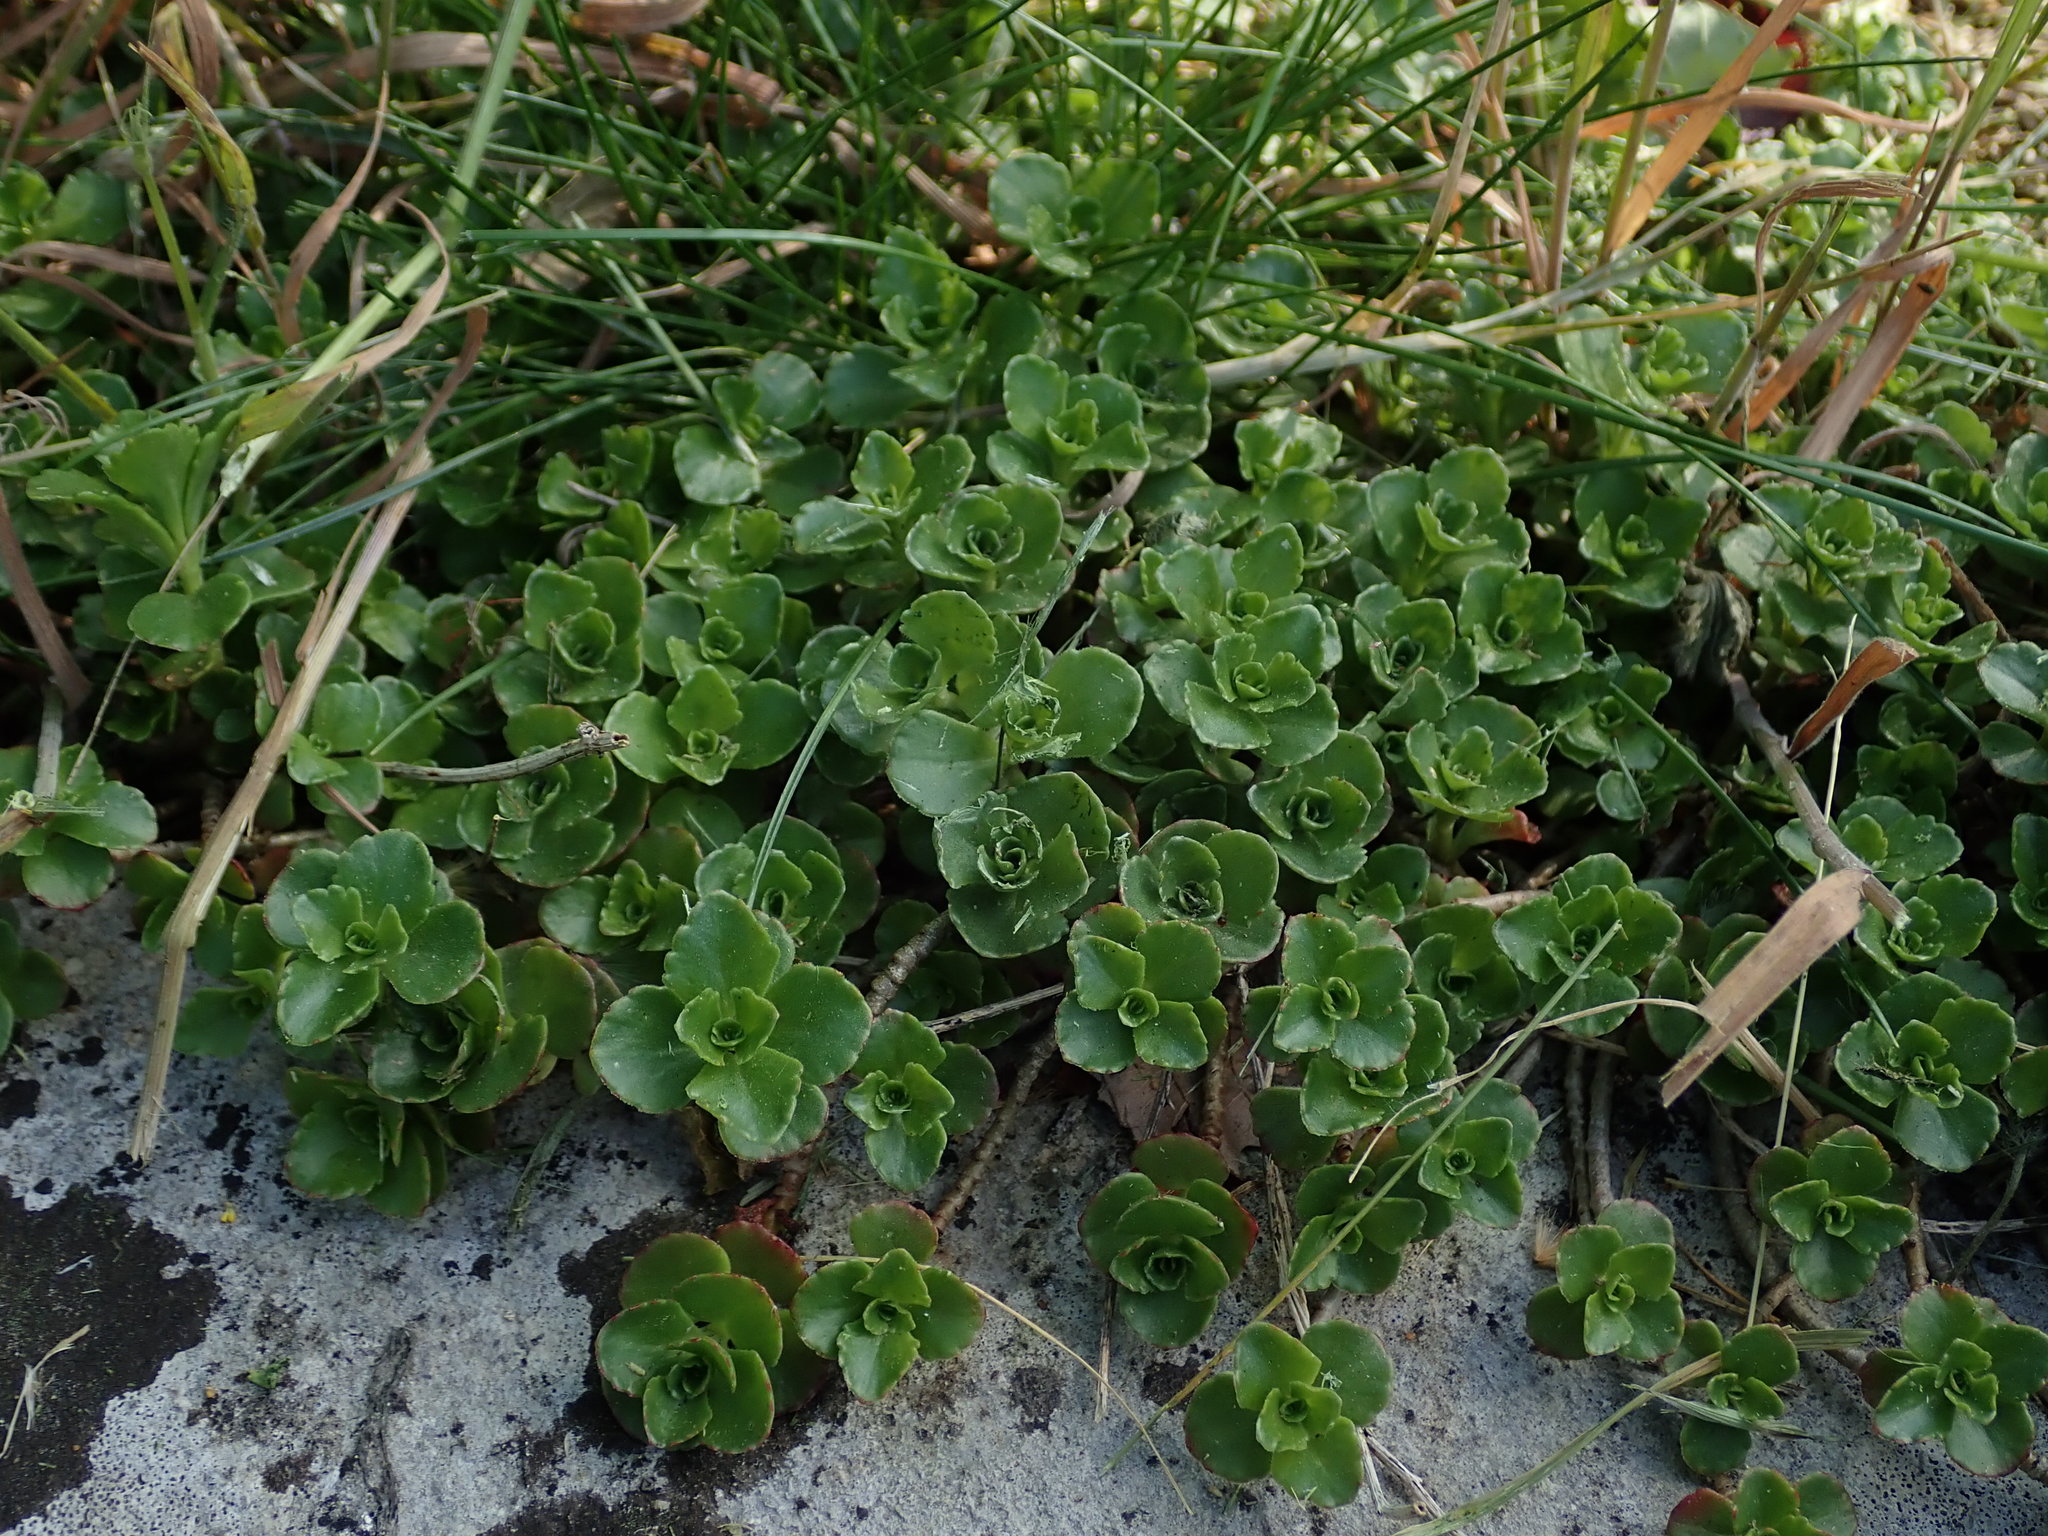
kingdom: Plantae
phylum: Tracheophyta
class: Magnoliopsida
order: Saxifragales
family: Crassulaceae
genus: Phedimus
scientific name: Phedimus spurius
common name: Caucasian stonecrop
